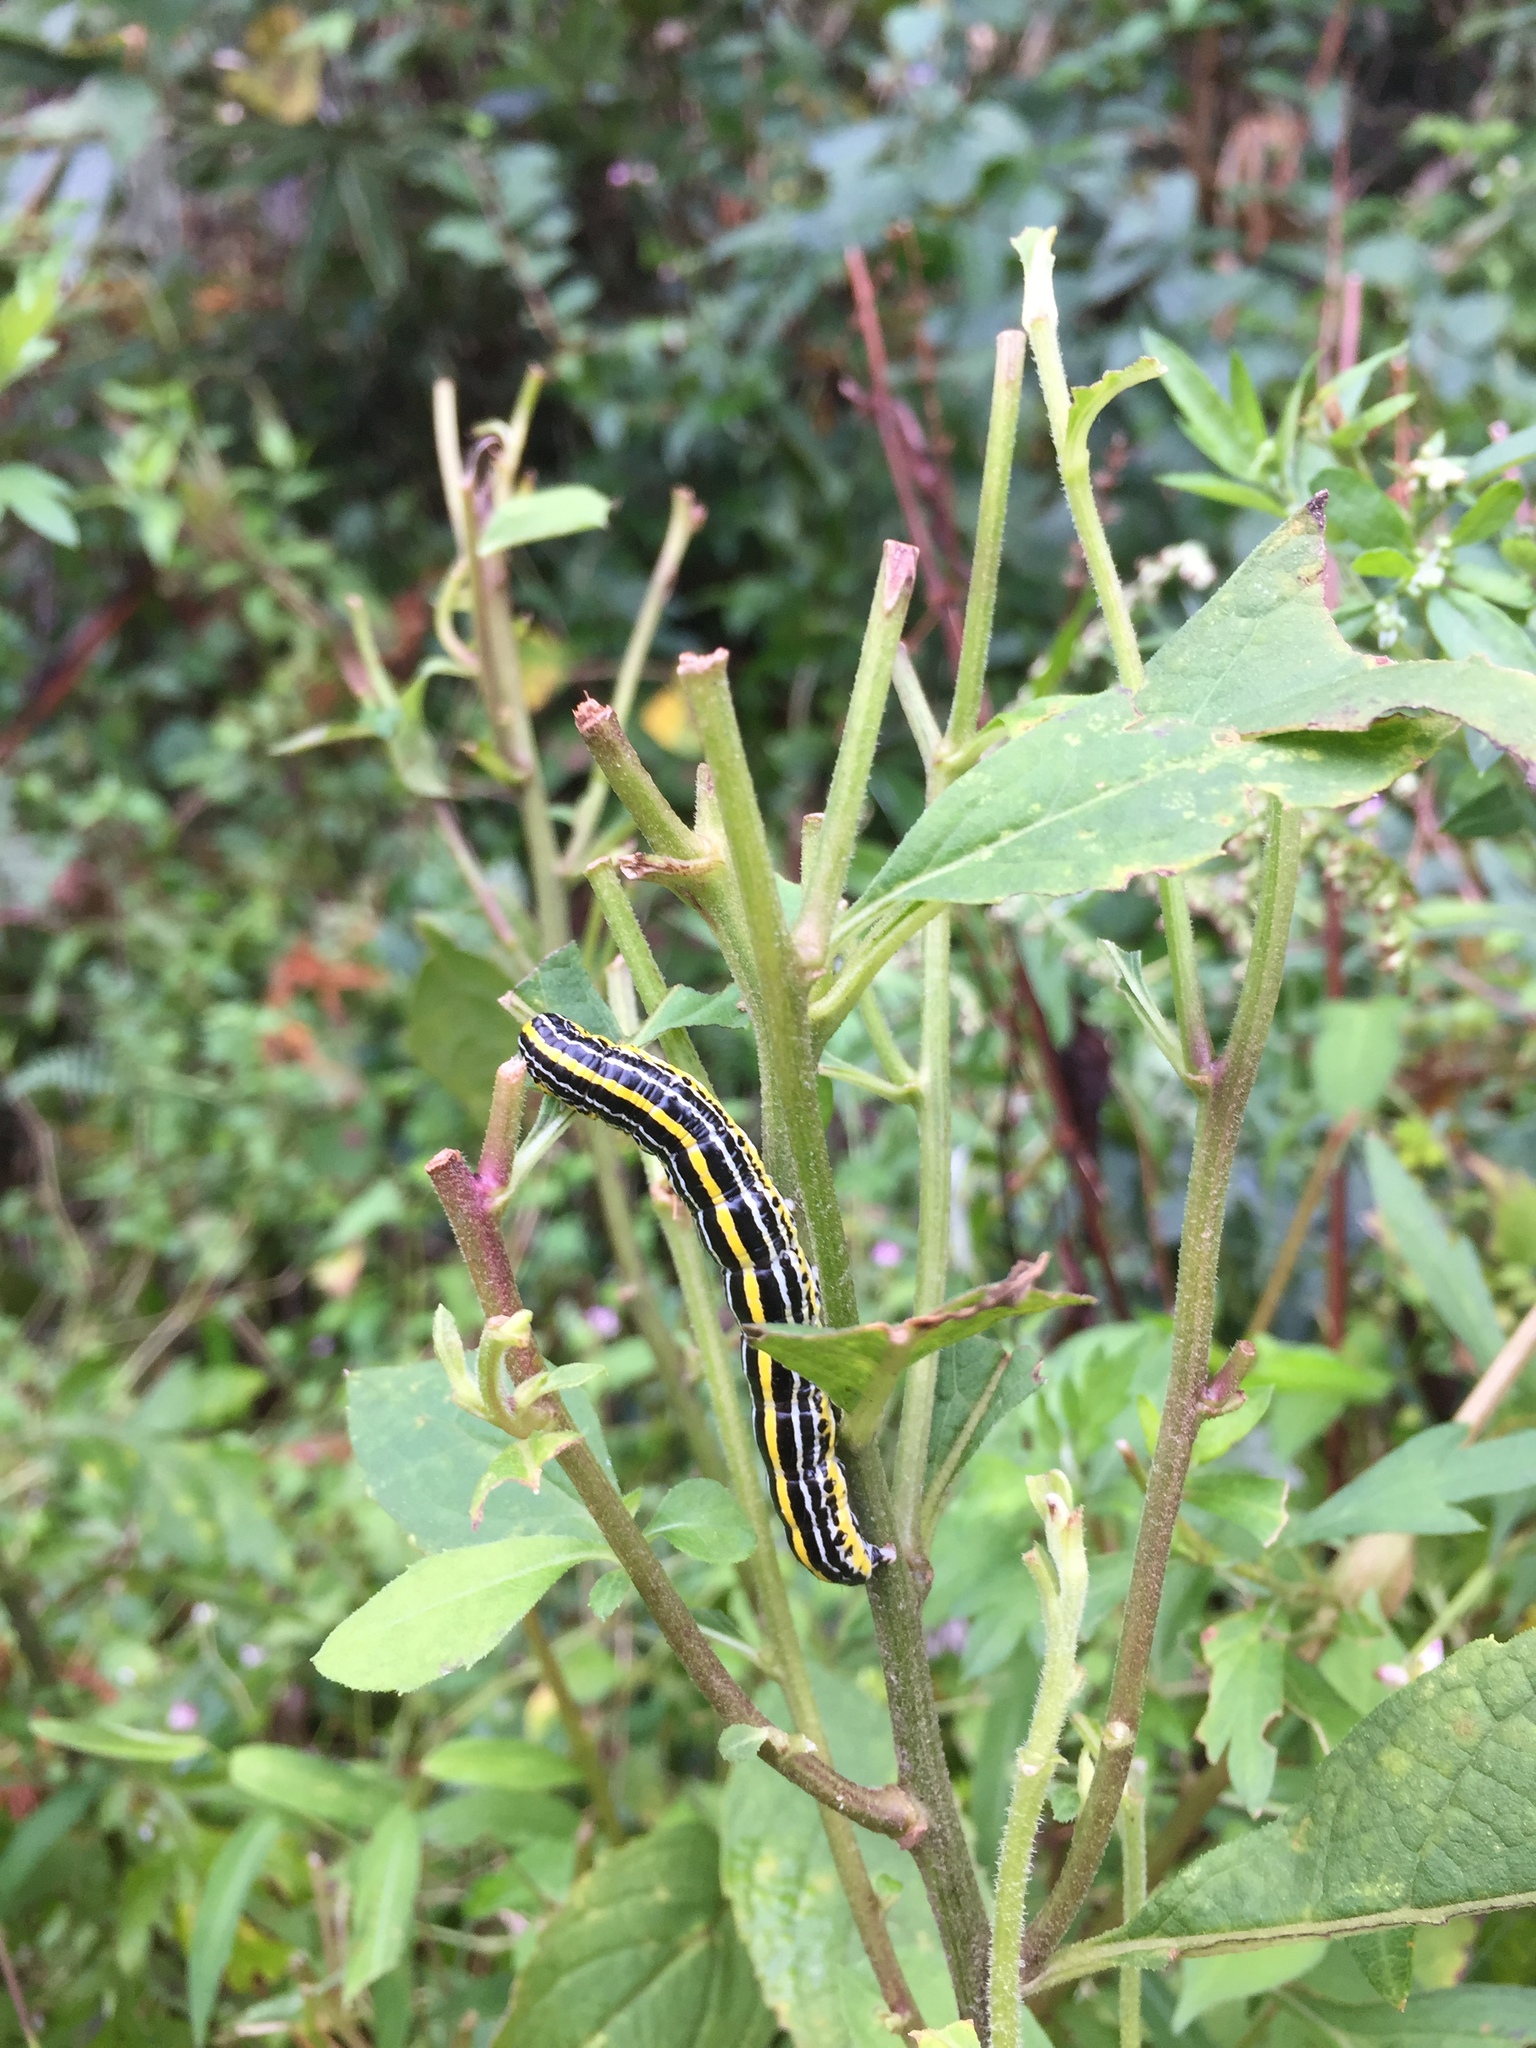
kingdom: Animalia
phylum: Arthropoda
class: Insecta
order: Lepidoptera
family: Noctuidae
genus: Cucullia
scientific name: Cucullia kurilullia
